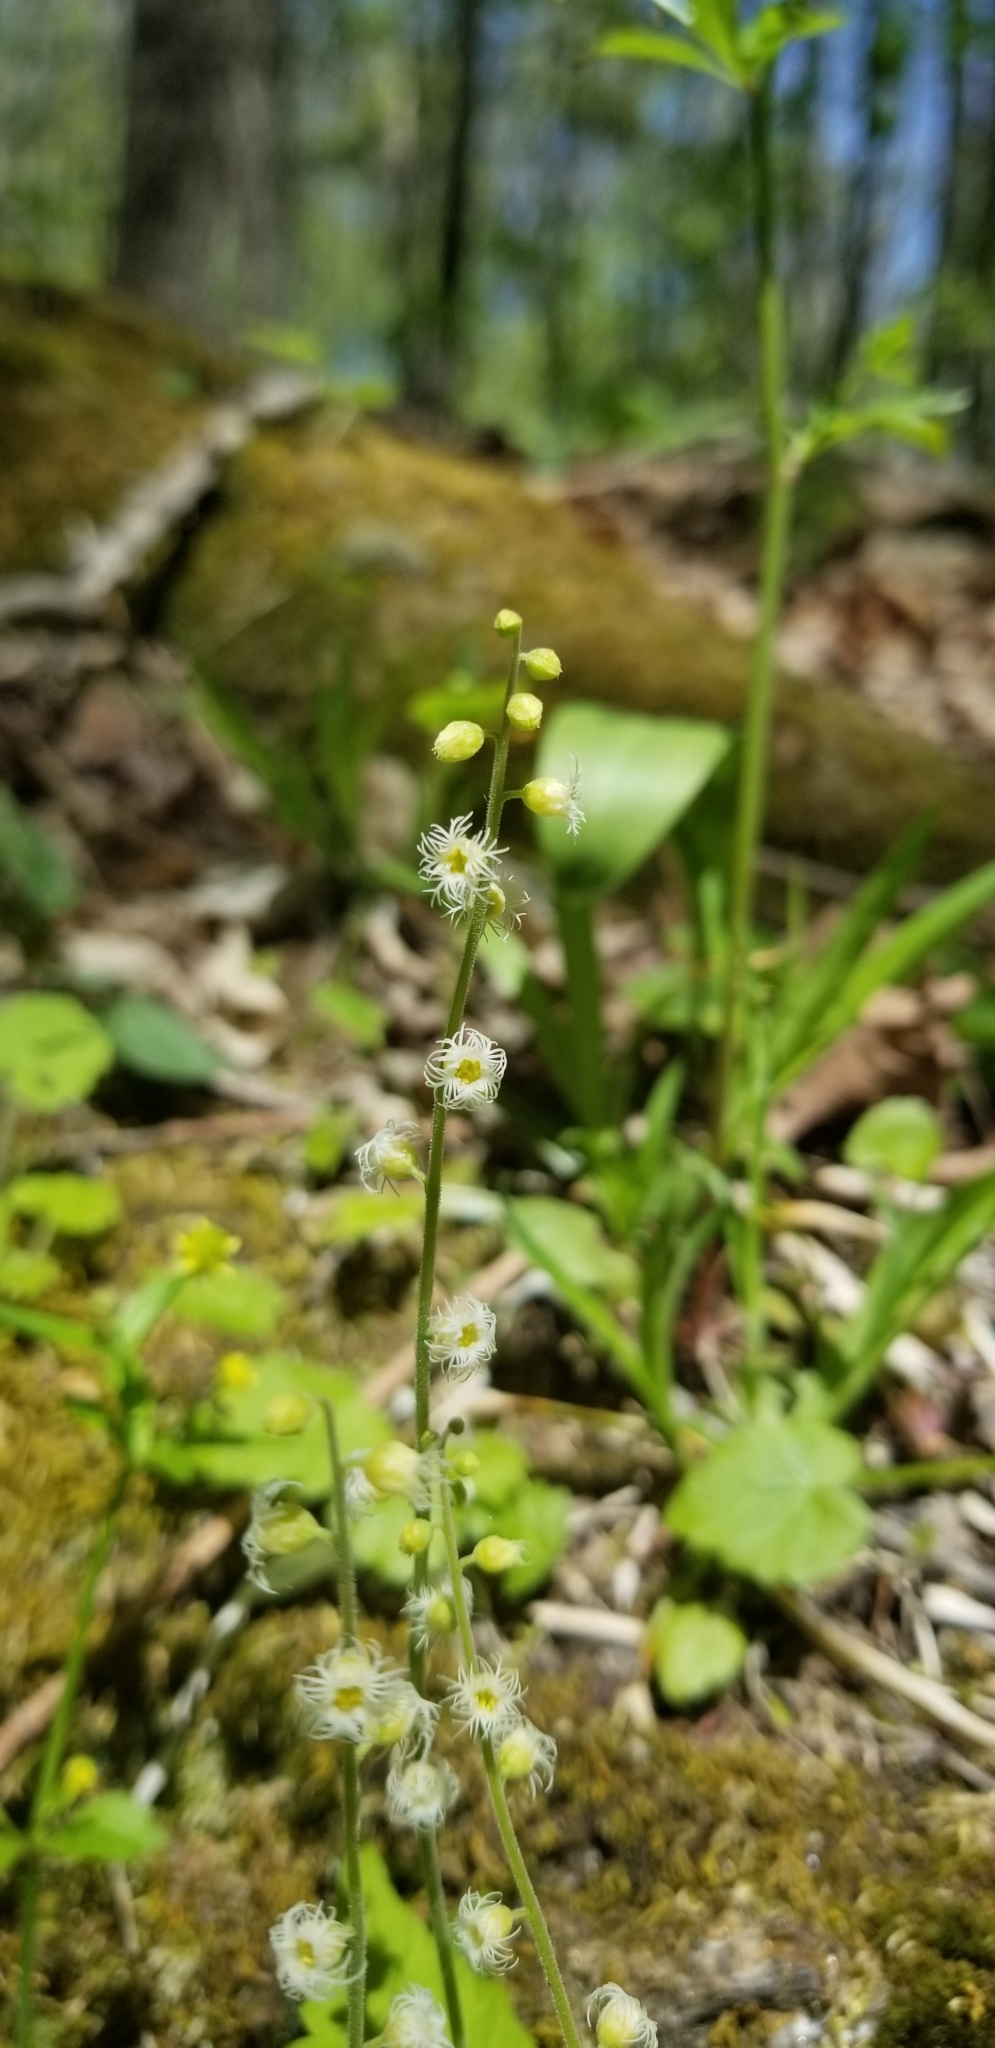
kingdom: Plantae
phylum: Tracheophyta
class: Magnoliopsida
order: Saxifragales
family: Saxifragaceae
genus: Mitella
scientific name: Mitella diphylla
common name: Coolwort
